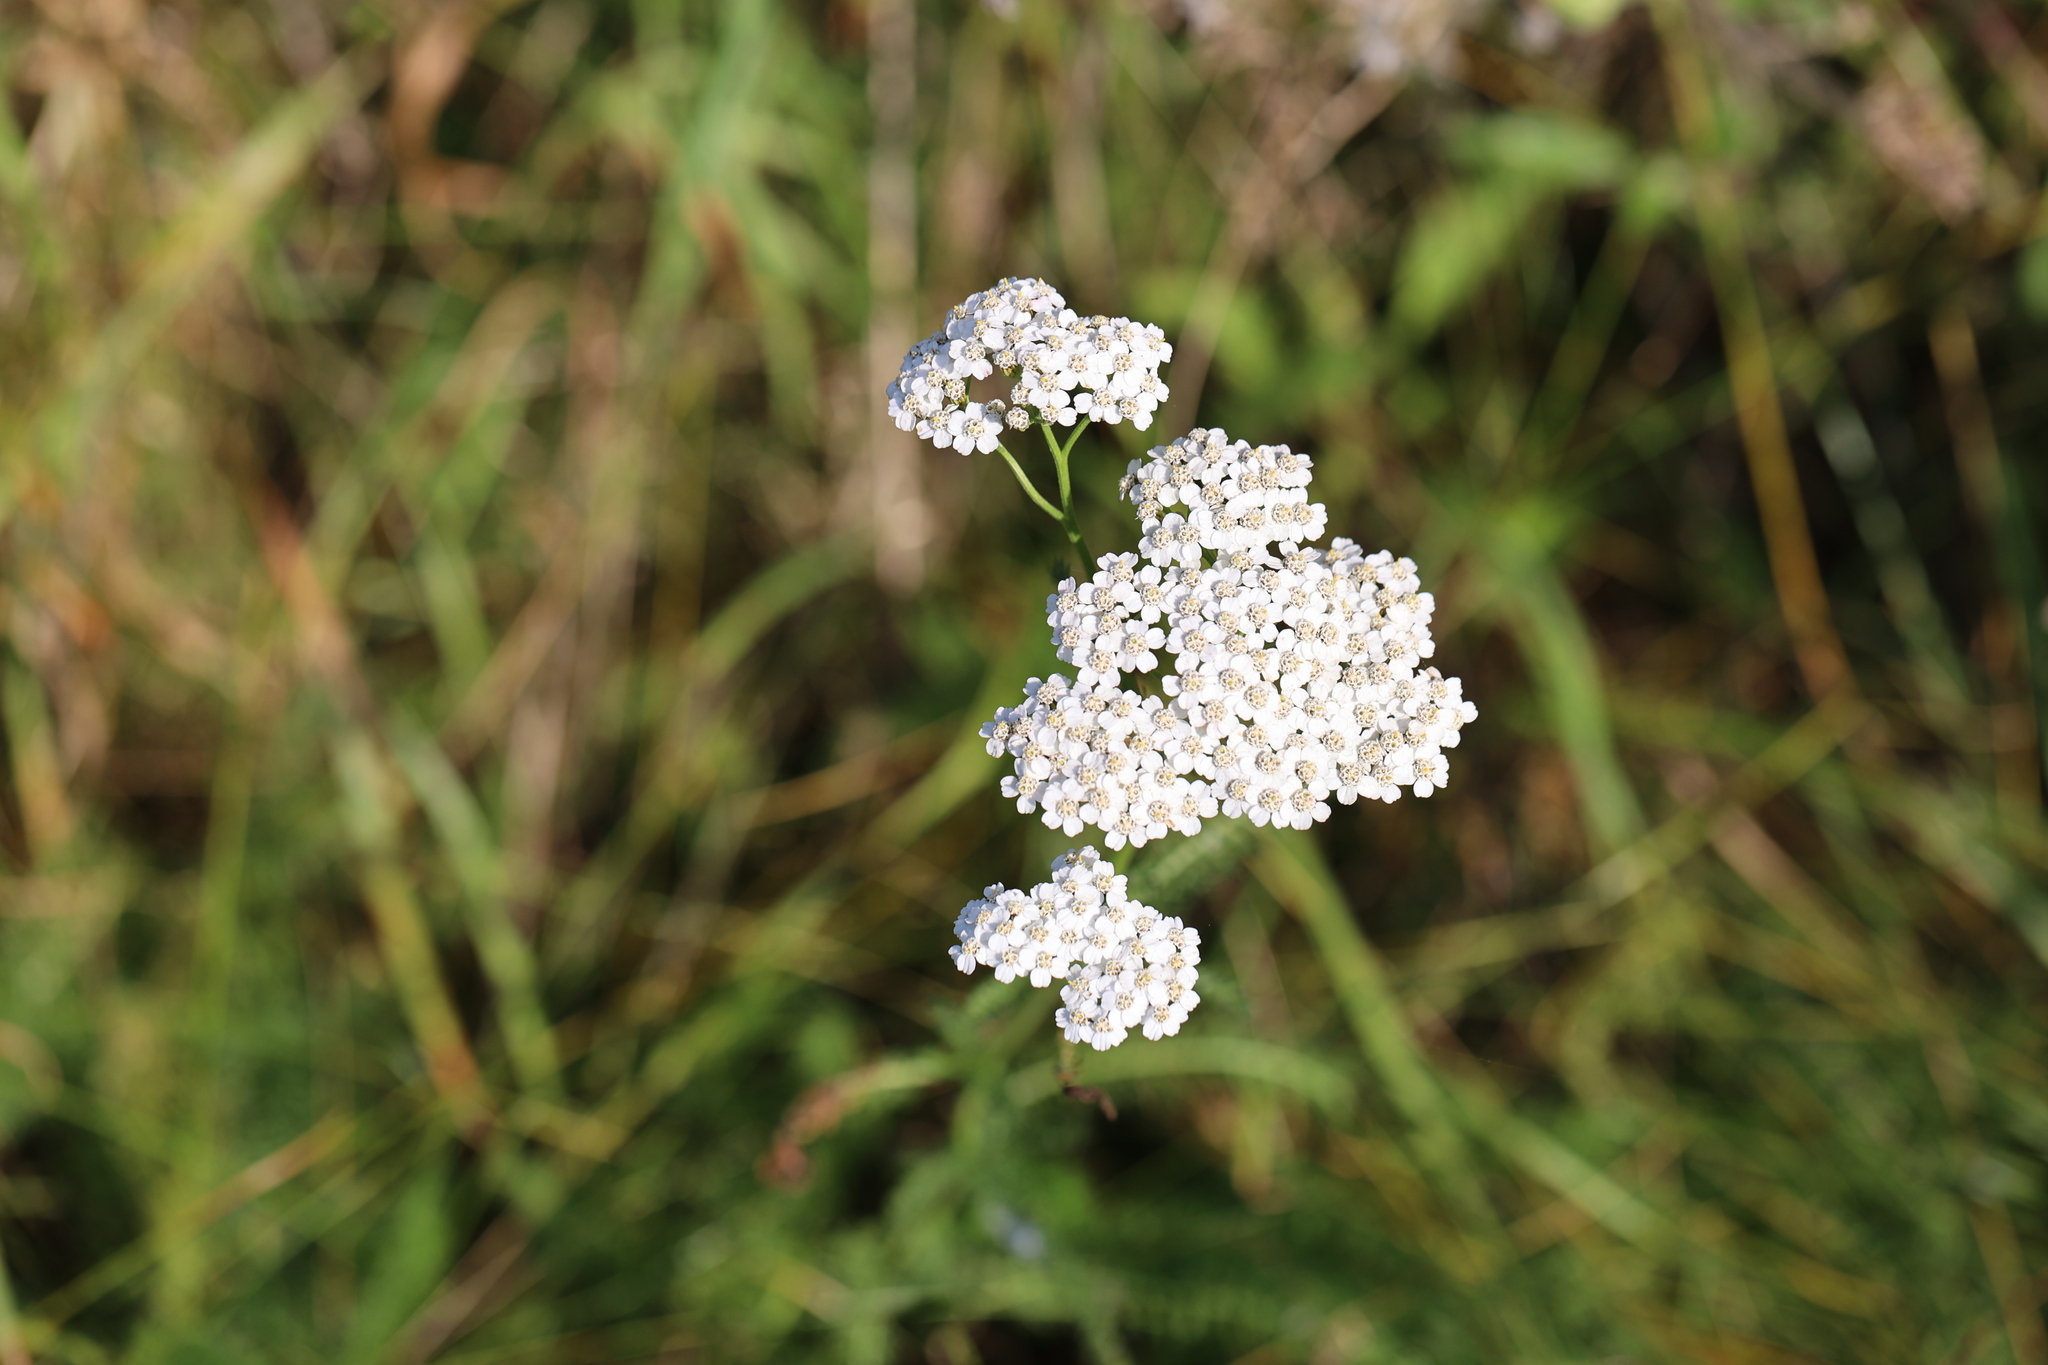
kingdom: Plantae
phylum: Tracheophyta
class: Magnoliopsida
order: Asterales
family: Asteraceae
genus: Achillea
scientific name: Achillea millefolium
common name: Yarrow
